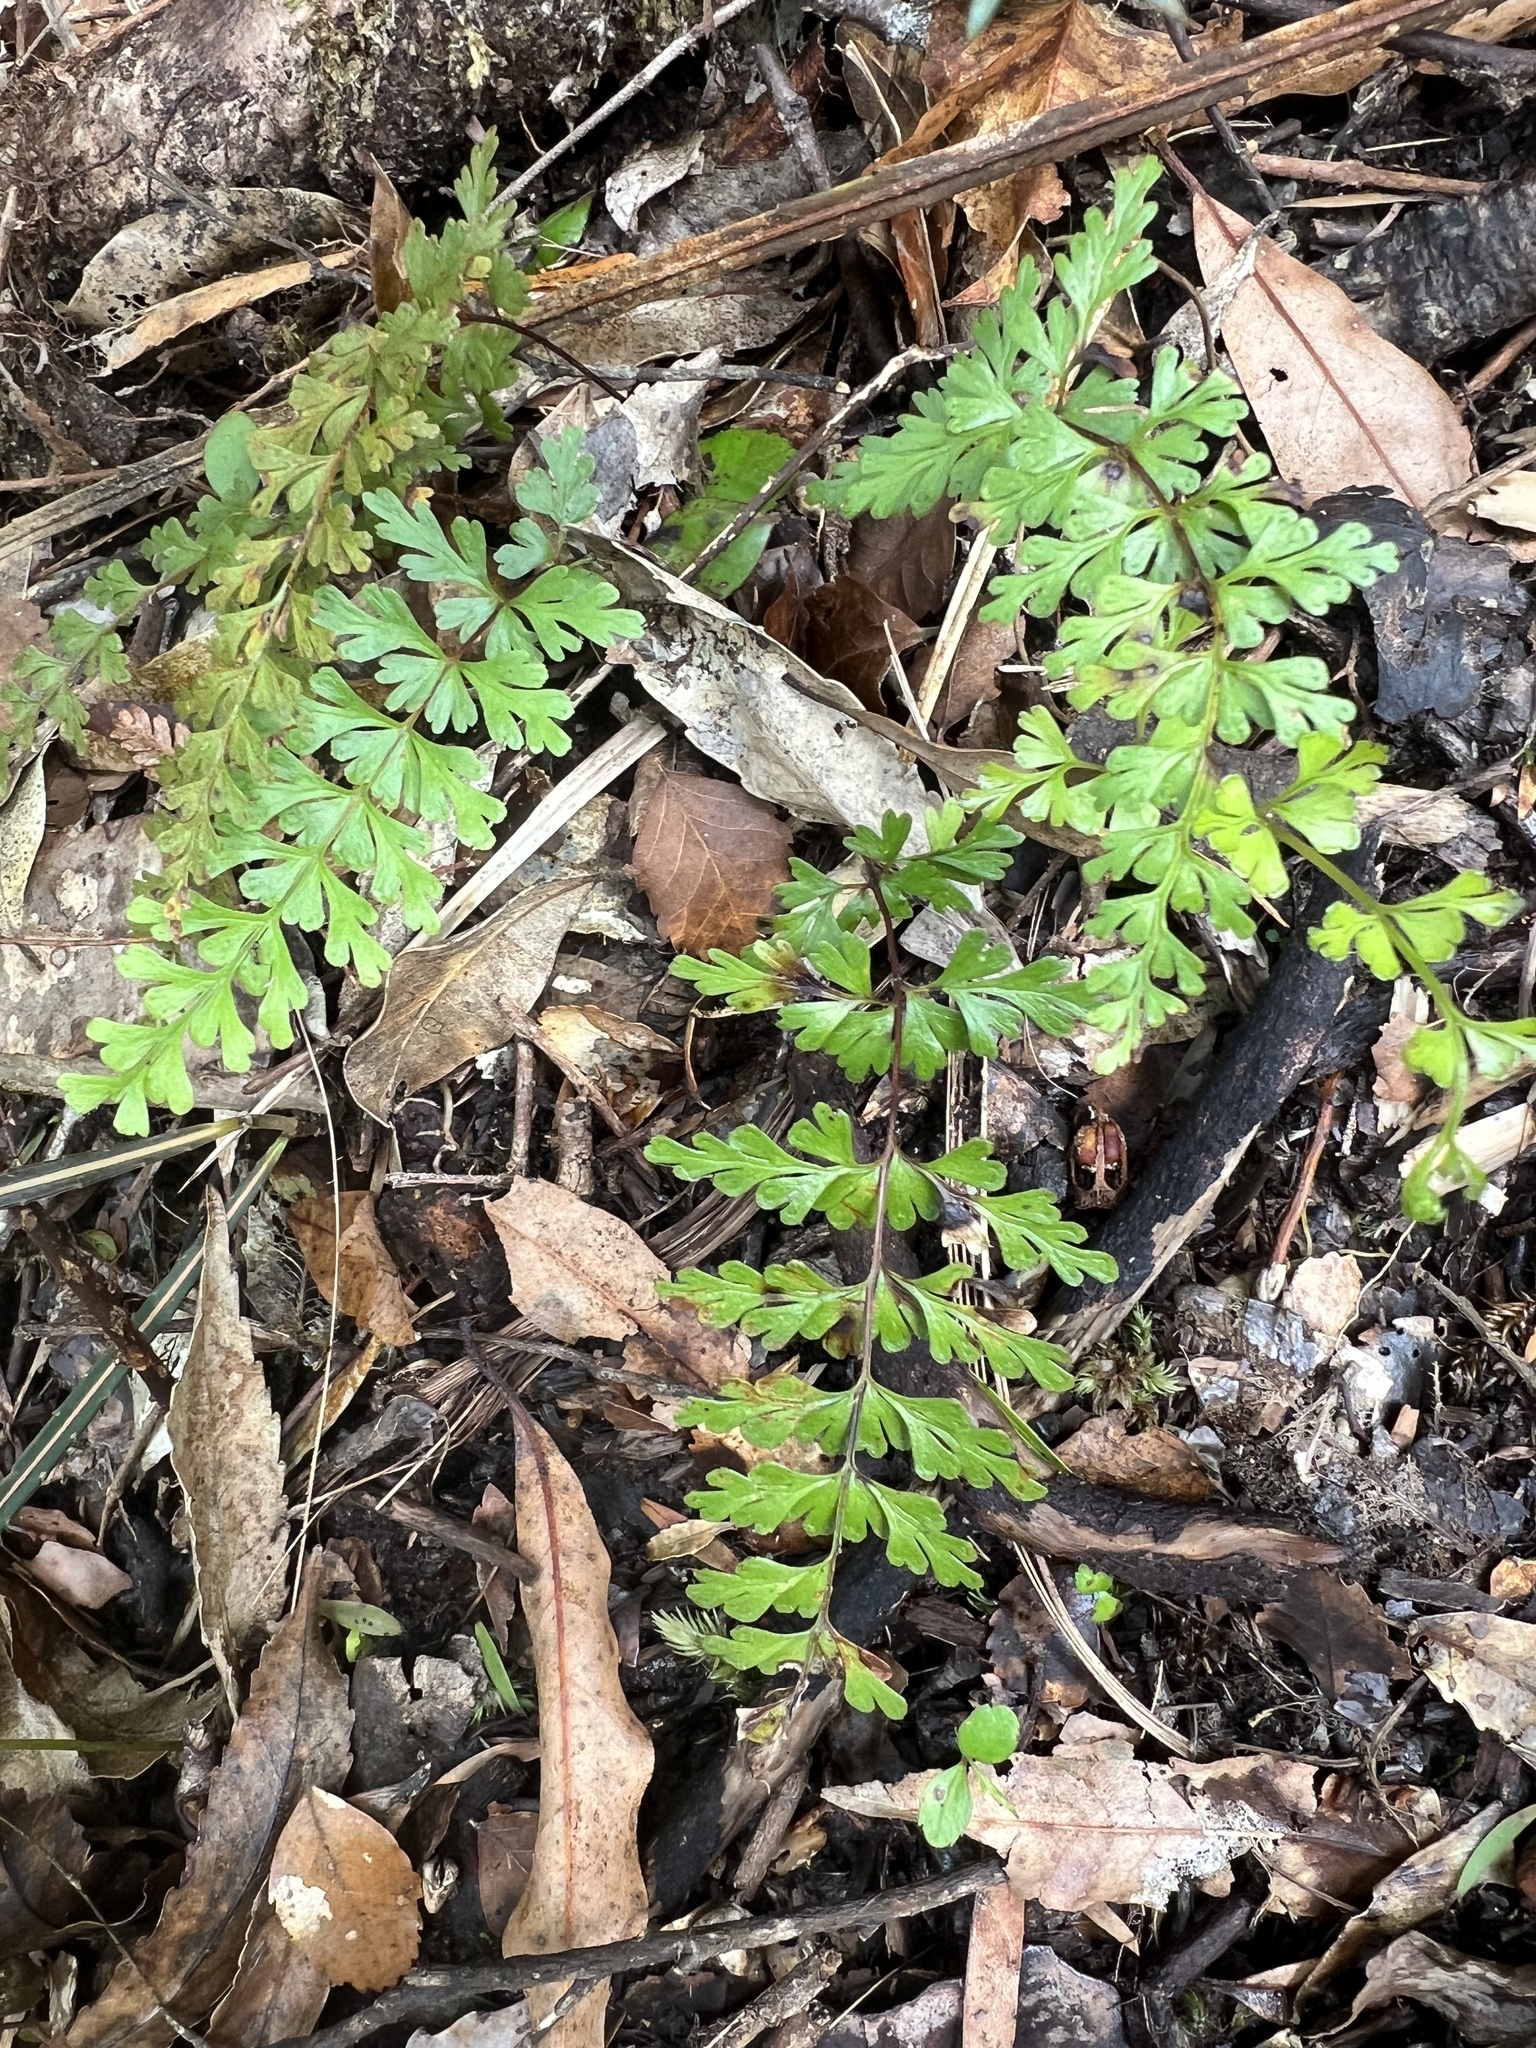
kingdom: Plantae
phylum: Tracheophyta
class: Polypodiopsida
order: Polypodiales
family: Lindsaeaceae
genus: Lindsaea
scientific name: Lindsaea trichomanoides
